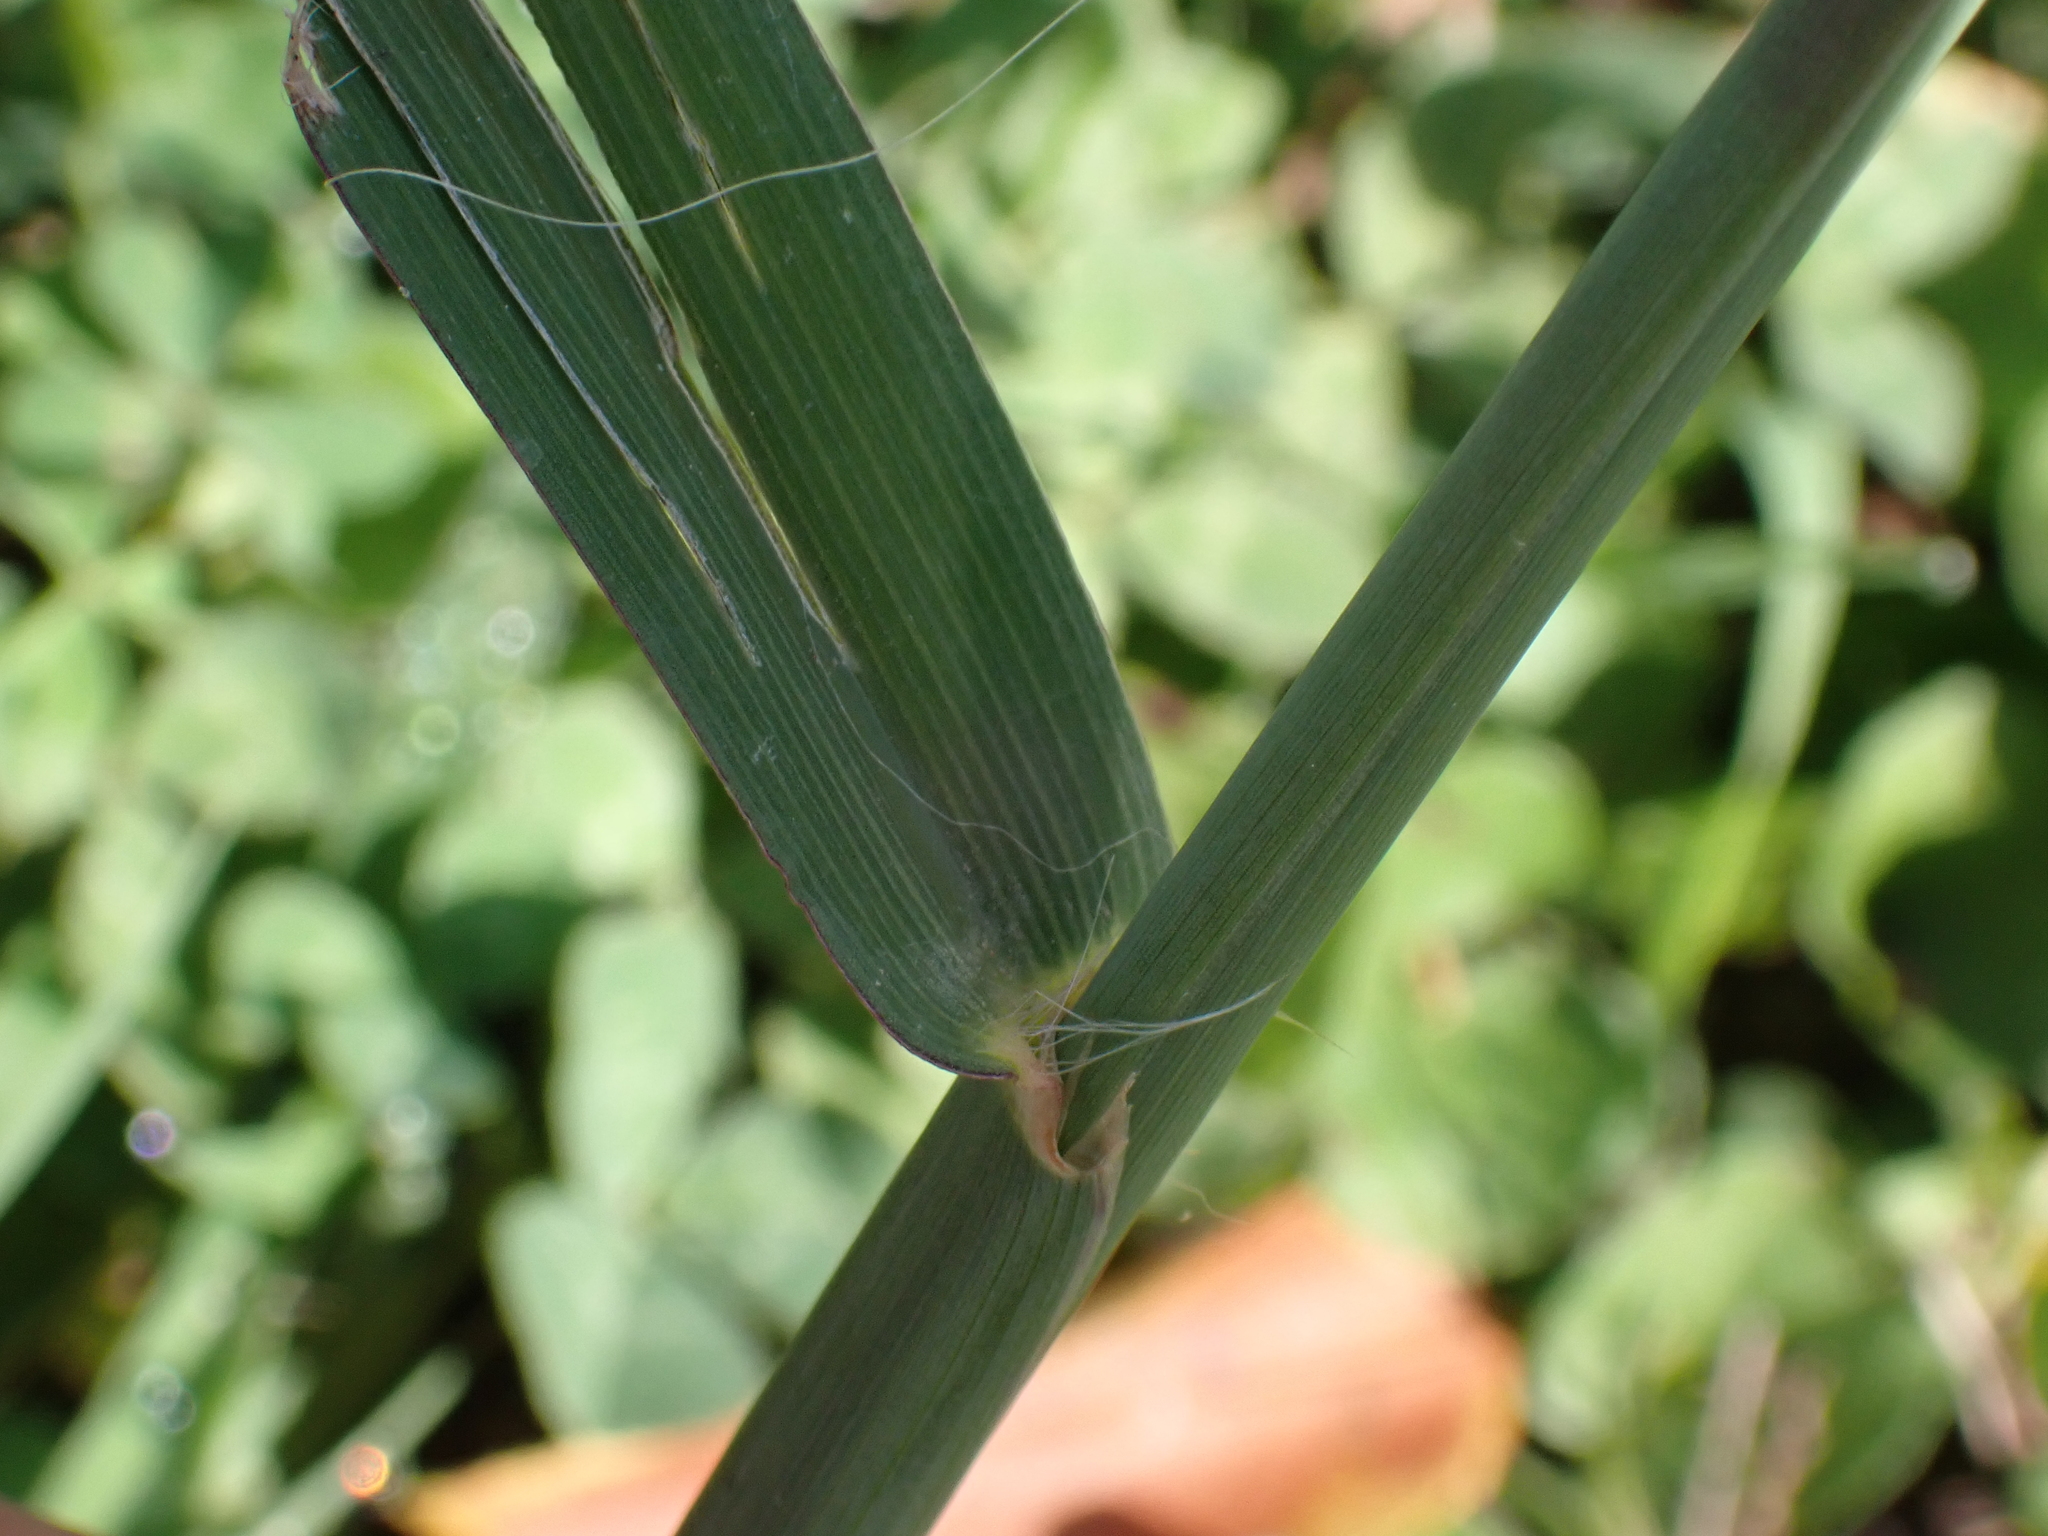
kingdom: Plantae
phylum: Tracheophyta
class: Liliopsida
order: Poales
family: Poaceae
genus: Paspalum
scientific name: Paspalum dilatatum
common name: Dallisgrass
